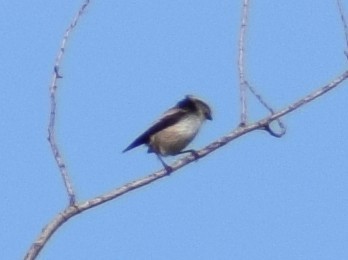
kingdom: Animalia
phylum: Chordata
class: Aves
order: Passeriformes
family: Aegithalidae
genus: Aegithalos
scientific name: Aegithalos caudatus
